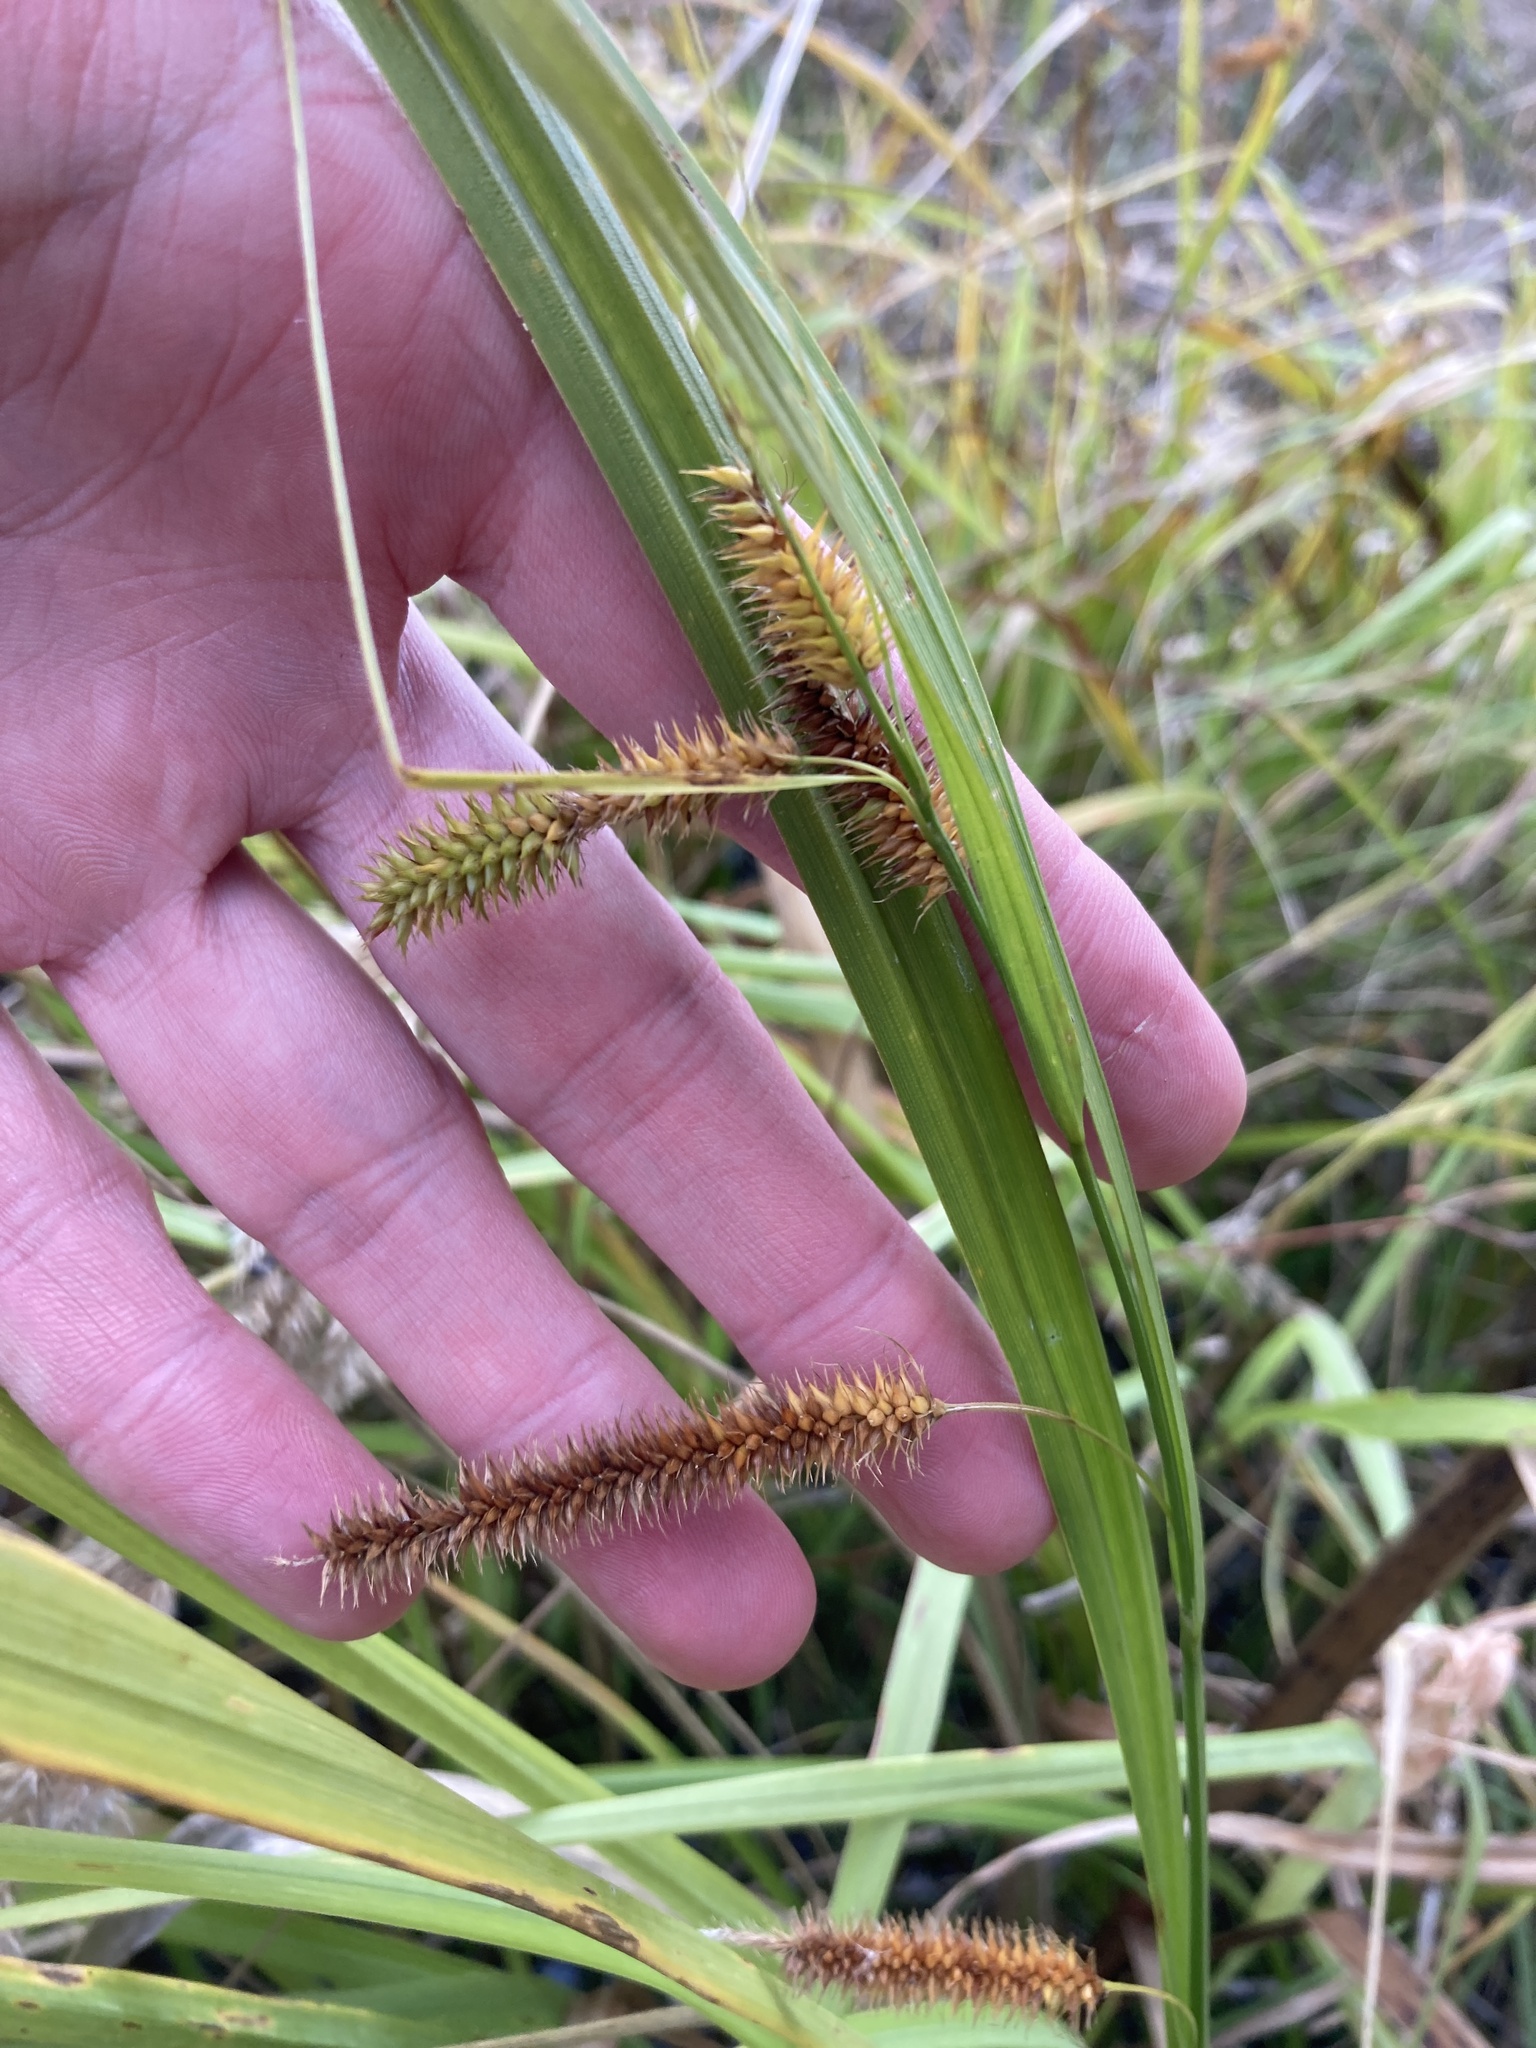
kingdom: Plantae
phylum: Tracheophyta
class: Liliopsida
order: Poales
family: Cyperaceae
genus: Carex
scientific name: Carex pseudocyperus
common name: Cyperus sedge
